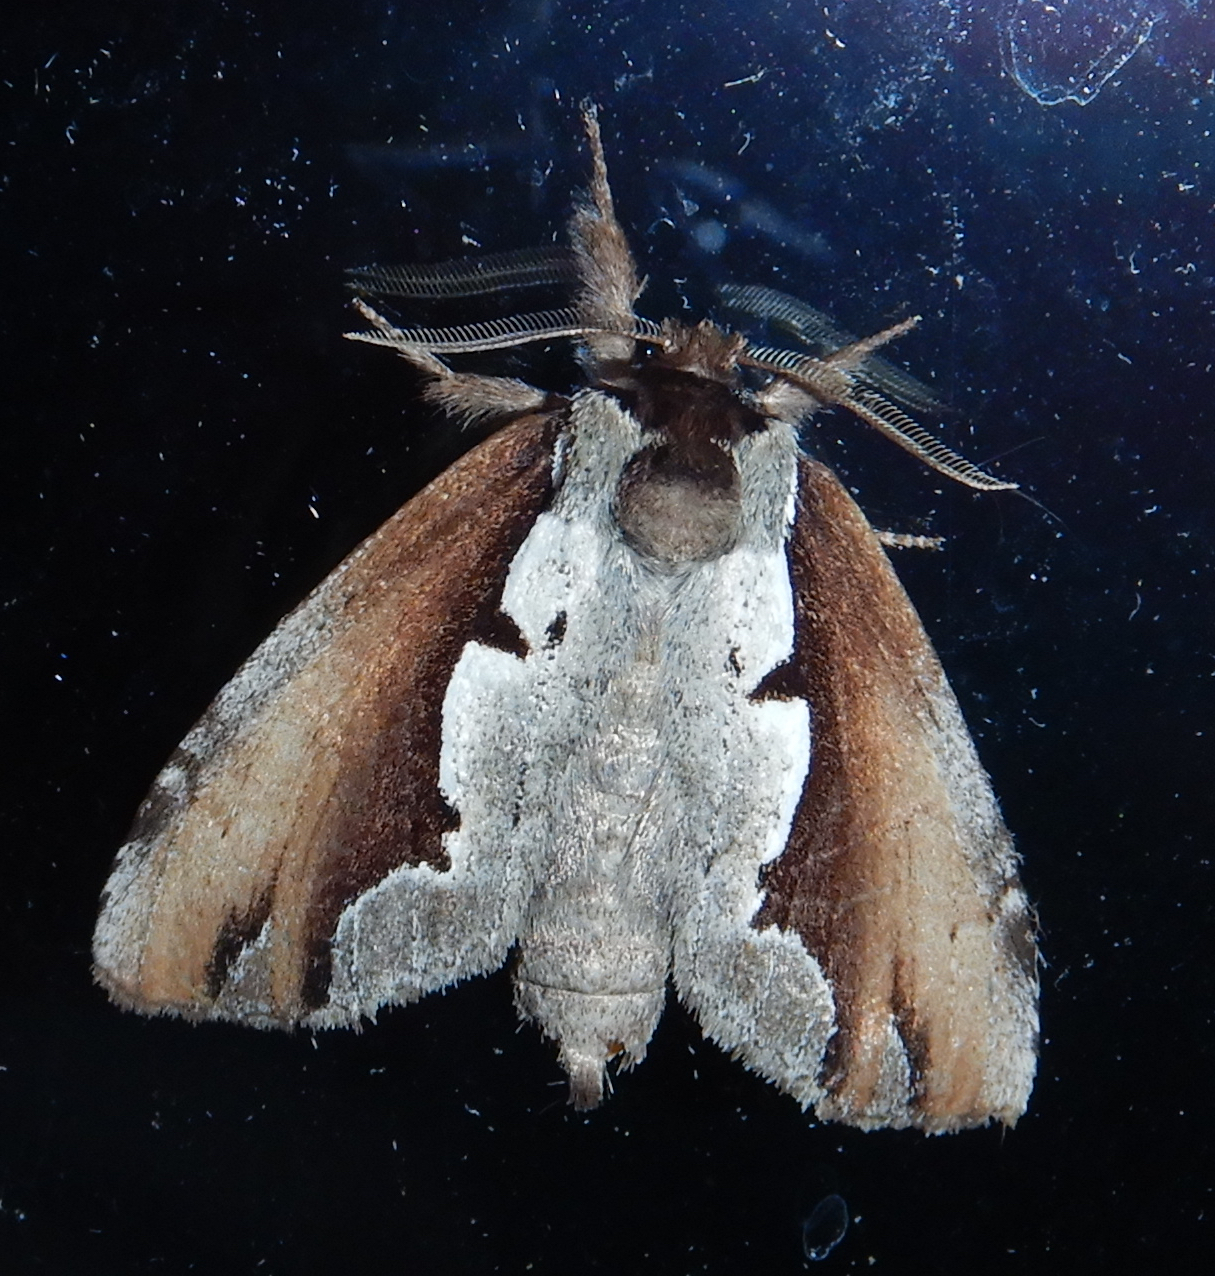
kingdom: Animalia
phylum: Arthropoda
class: Insecta
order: Lepidoptera
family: Notodontidae
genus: Nerice
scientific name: Nerice bidentata
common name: Double-toothed prominent
